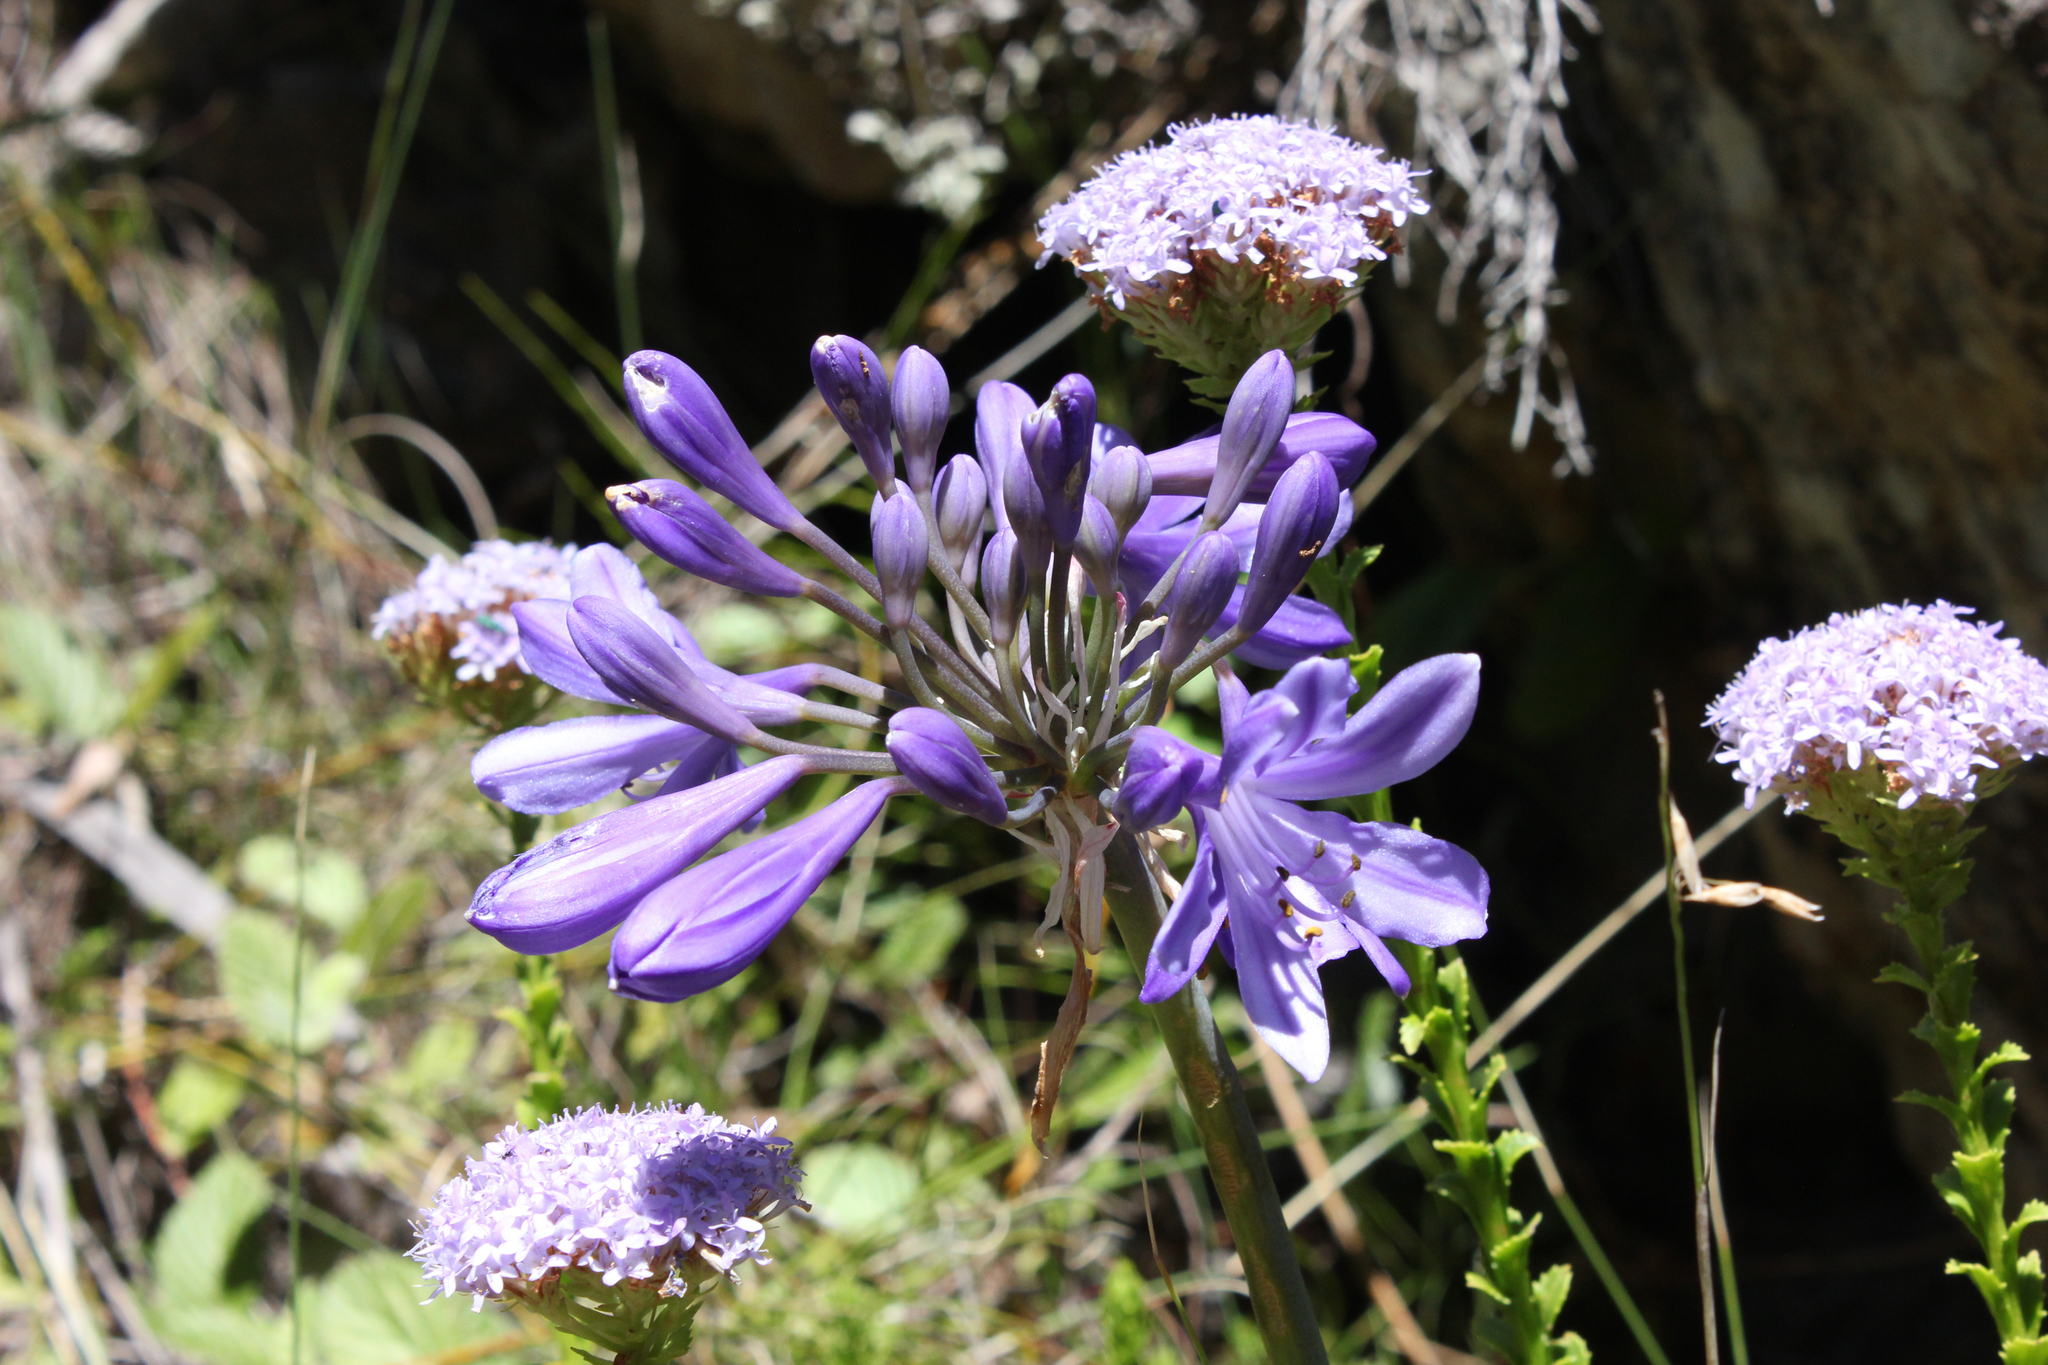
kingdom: Plantae
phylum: Tracheophyta
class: Liliopsida
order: Asparagales
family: Amaryllidaceae
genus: Agapanthus
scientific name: Agapanthus africanus
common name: Lily-of-the-nile
